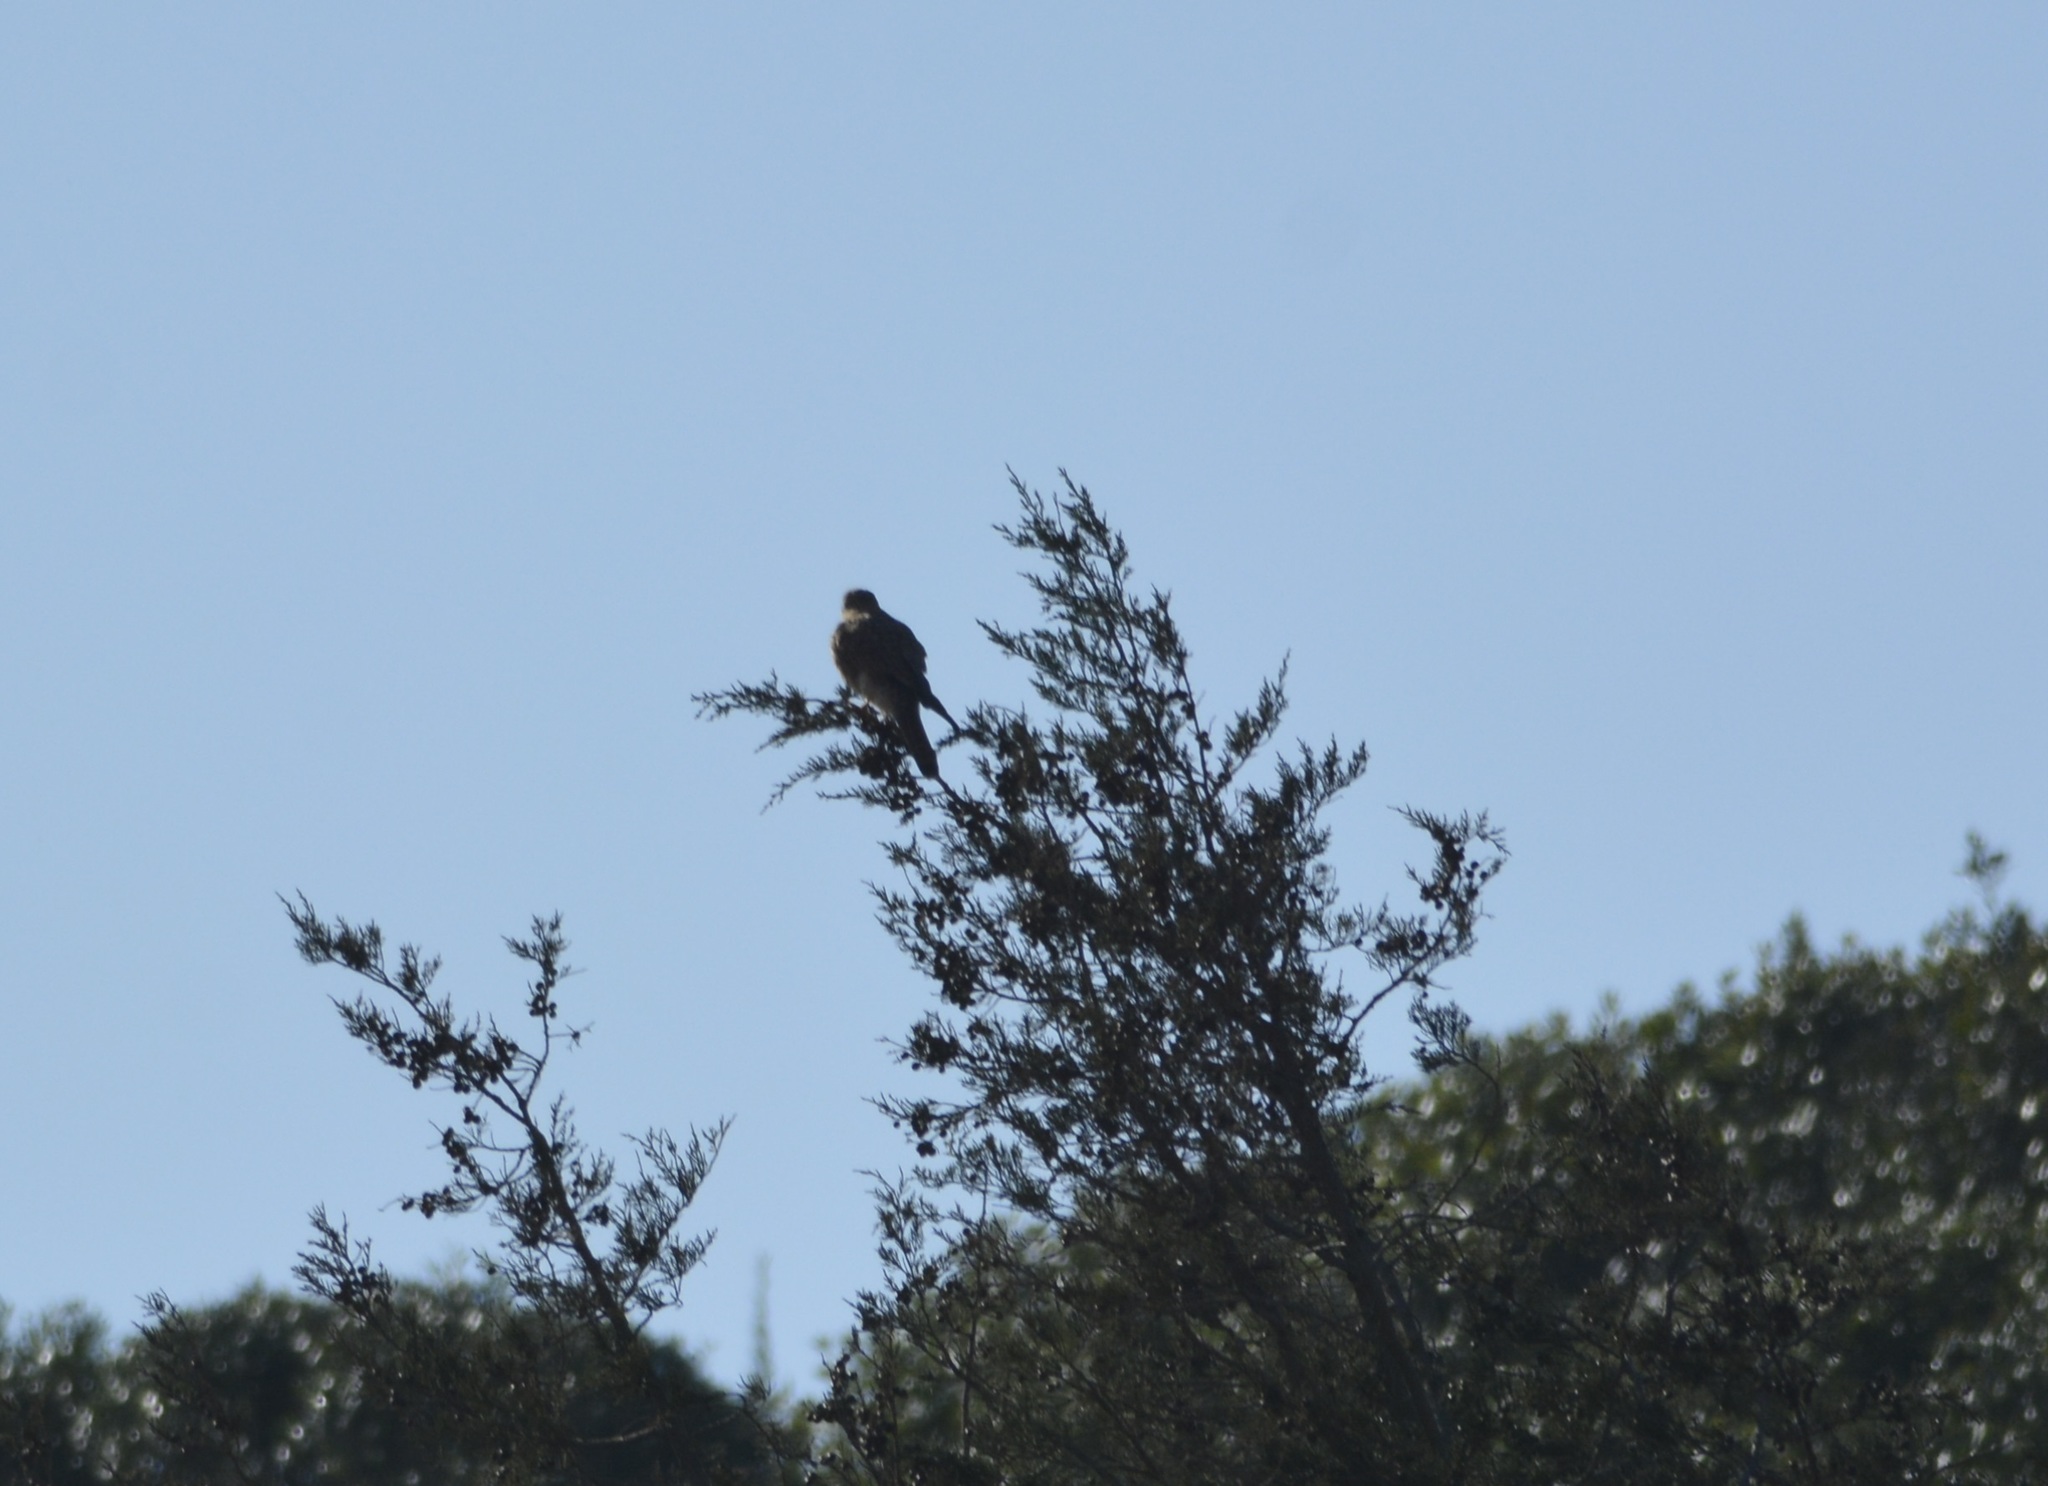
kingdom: Animalia
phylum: Chordata
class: Aves
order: Falconiformes
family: Falconidae
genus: Falco
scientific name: Falco tinnunculus
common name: Common kestrel
